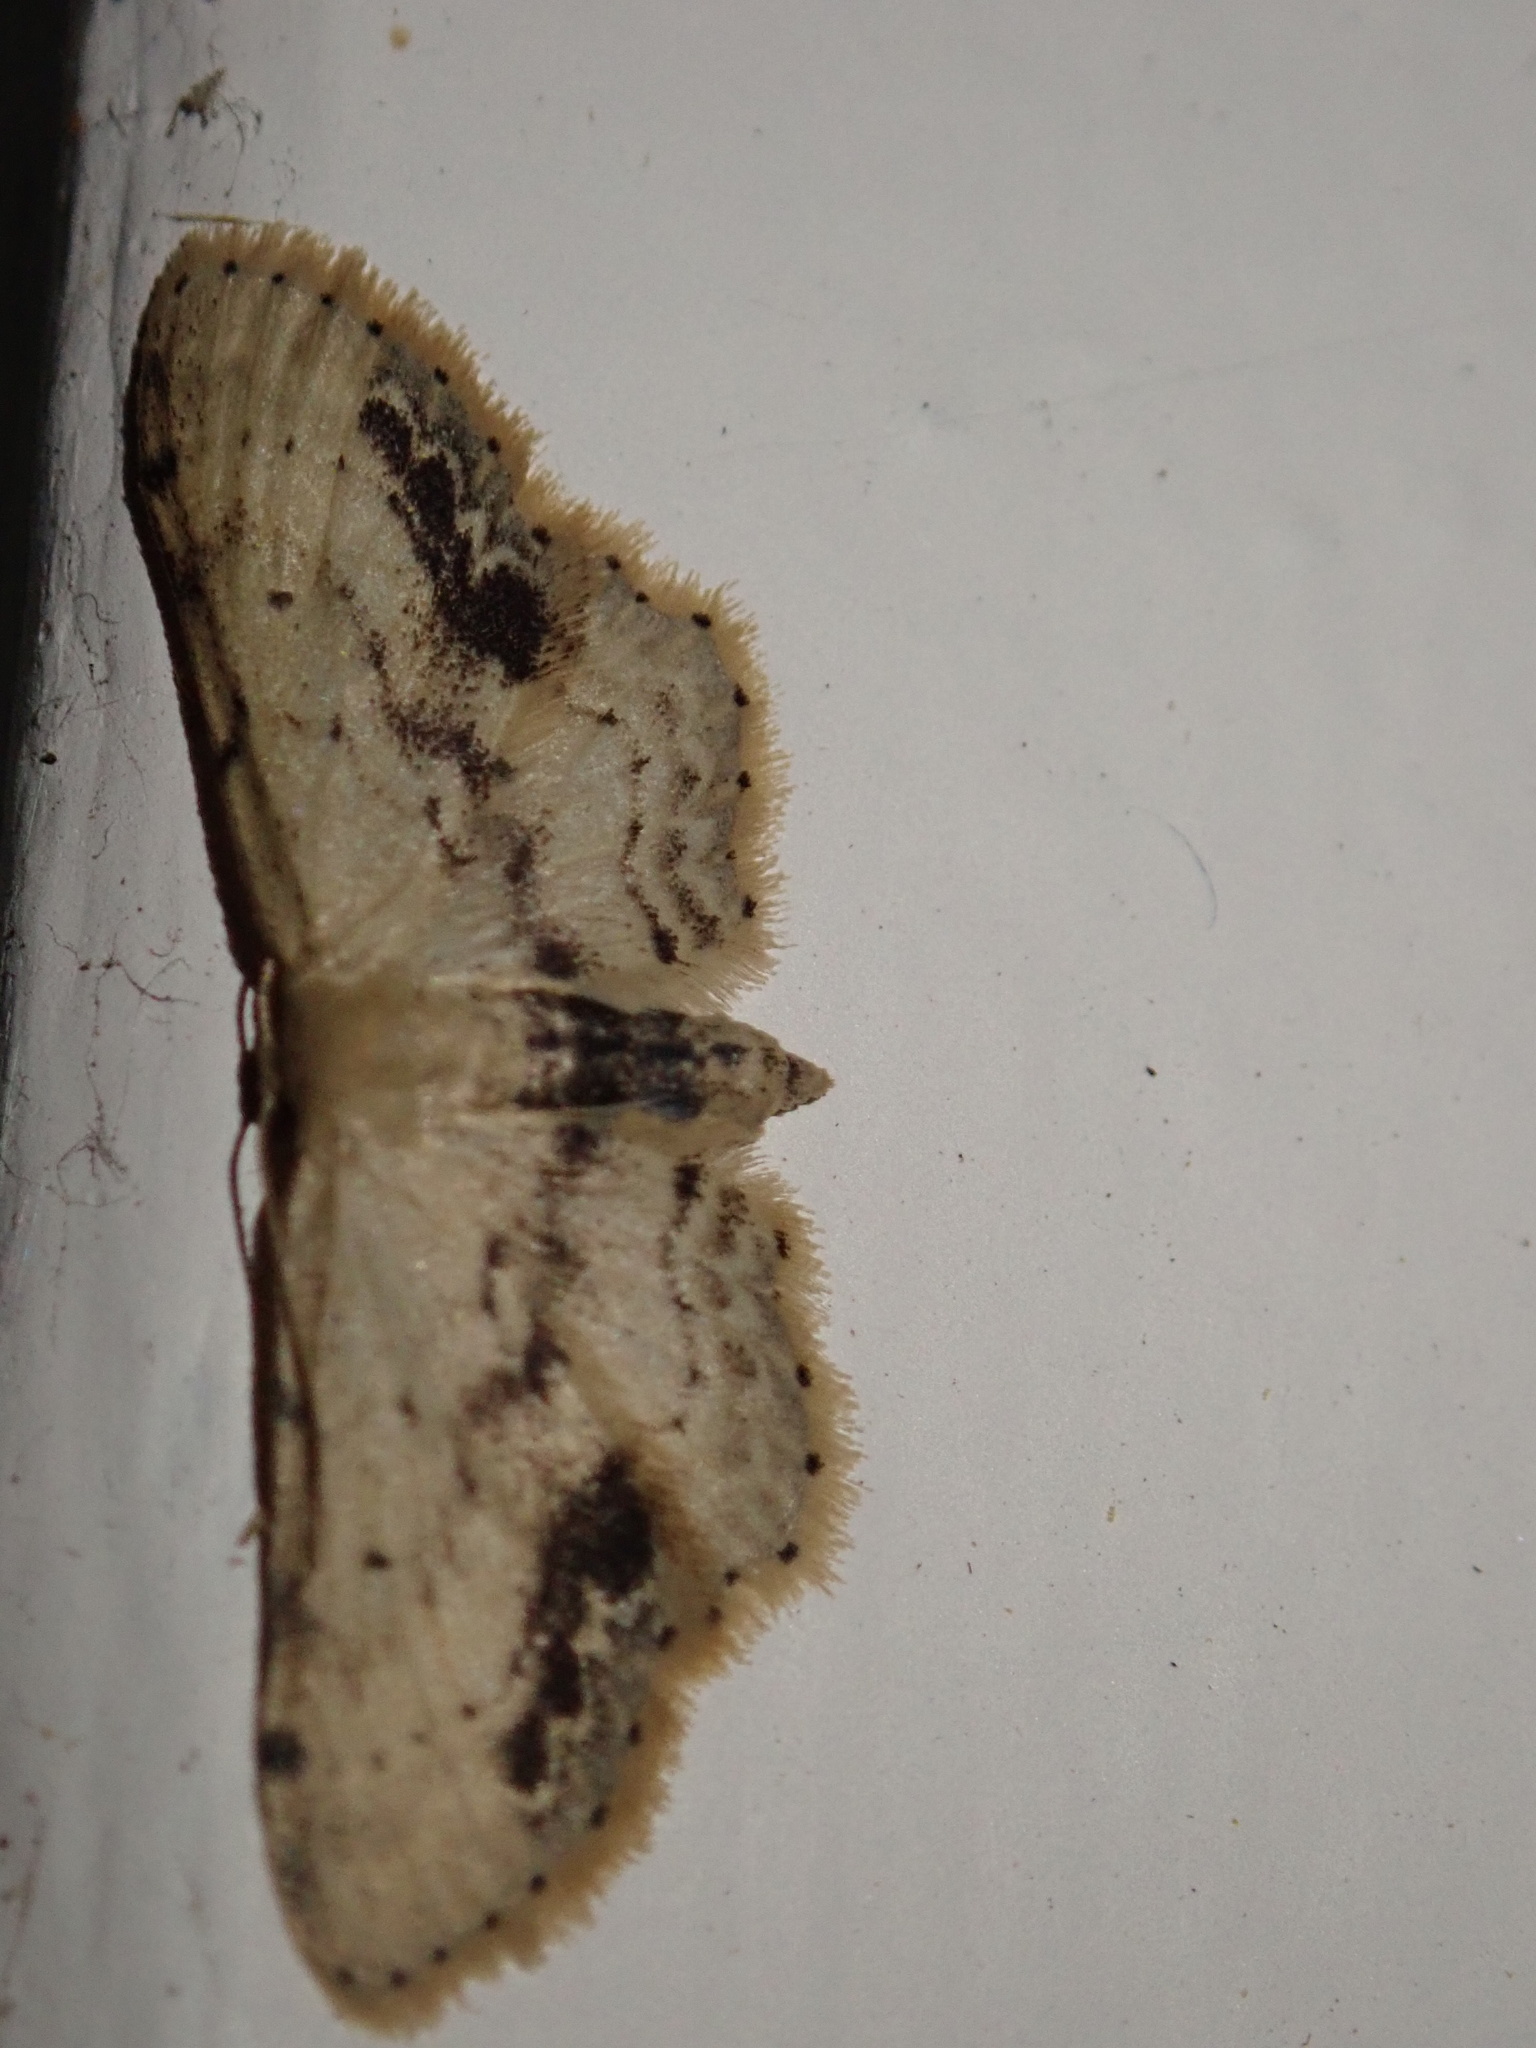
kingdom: Animalia
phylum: Arthropoda
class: Insecta
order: Lepidoptera
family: Geometridae
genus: Idaea
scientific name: Idaea dimidiata
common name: Single-dotted wave
